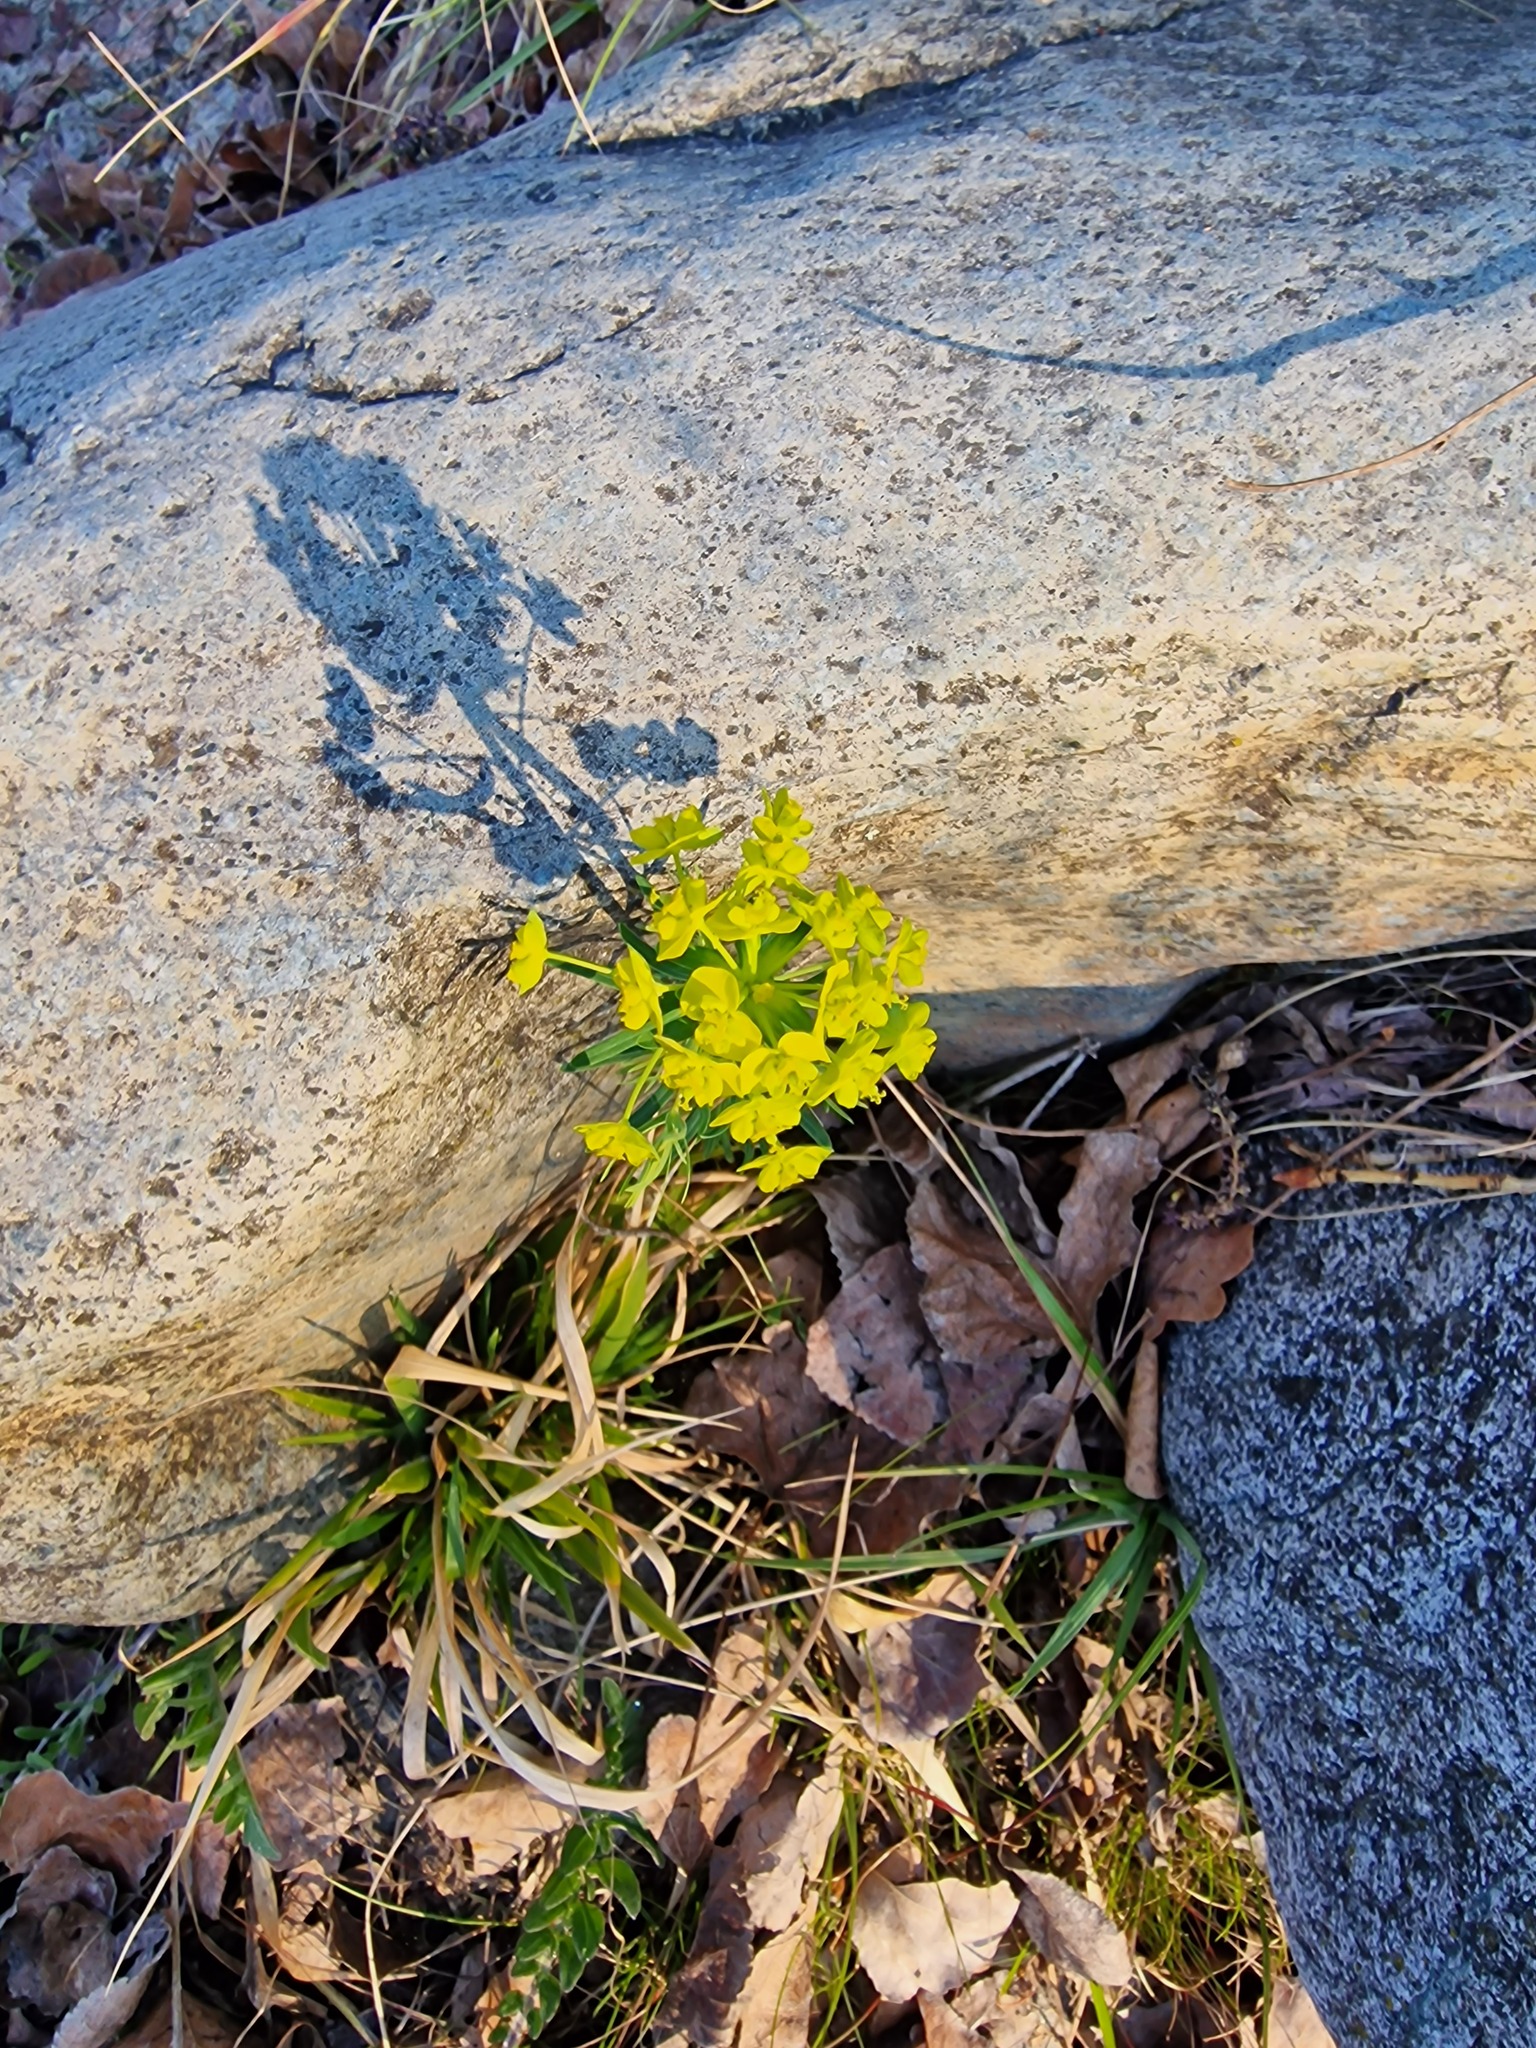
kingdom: Plantae
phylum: Tracheophyta
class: Magnoliopsida
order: Malpighiales
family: Euphorbiaceae
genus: Euphorbia
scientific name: Euphorbia cyparissias
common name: Cypress spurge
